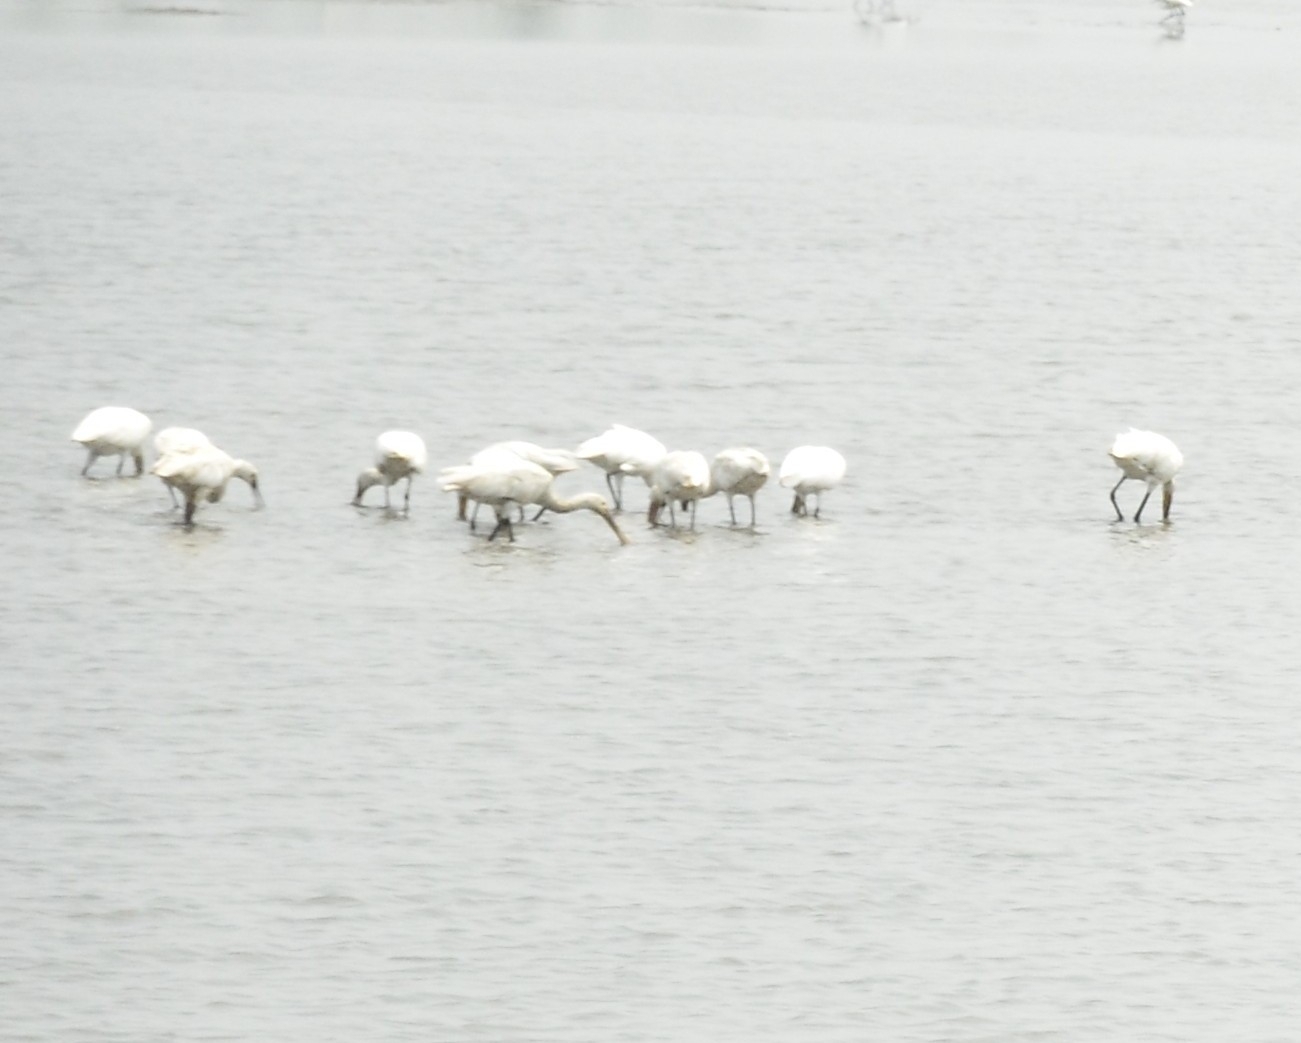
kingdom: Animalia
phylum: Chordata
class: Aves
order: Pelecaniformes
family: Threskiornithidae
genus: Platalea
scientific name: Platalea leucorodia
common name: Eurasian spoonbill
